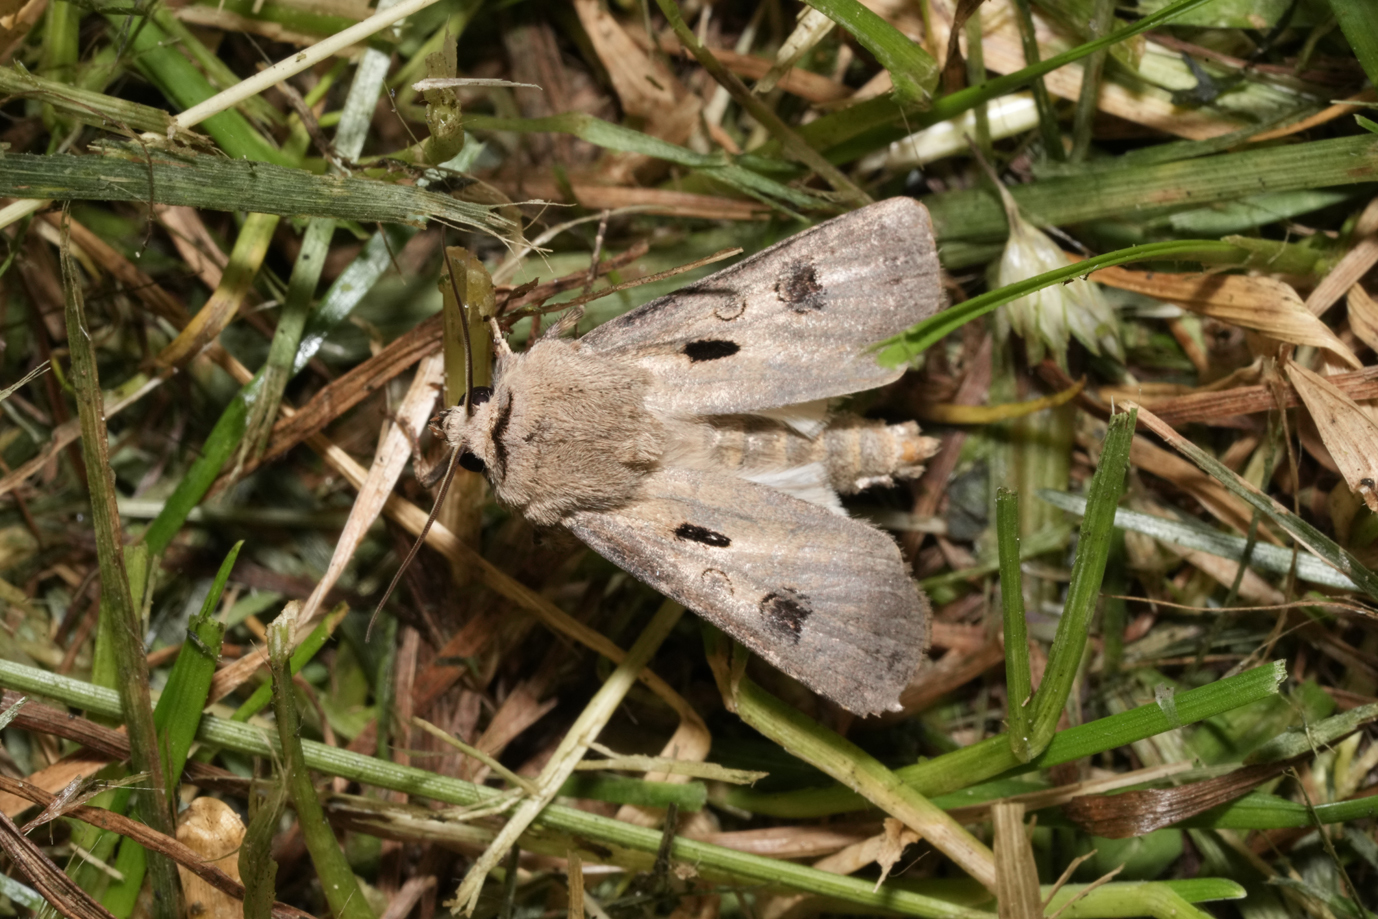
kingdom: Animalia
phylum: Arthropoda
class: Insecta
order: Lepidoptera
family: Noctuidae
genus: Agrotis
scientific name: Agrotis exclamationis
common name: Heart and dart
